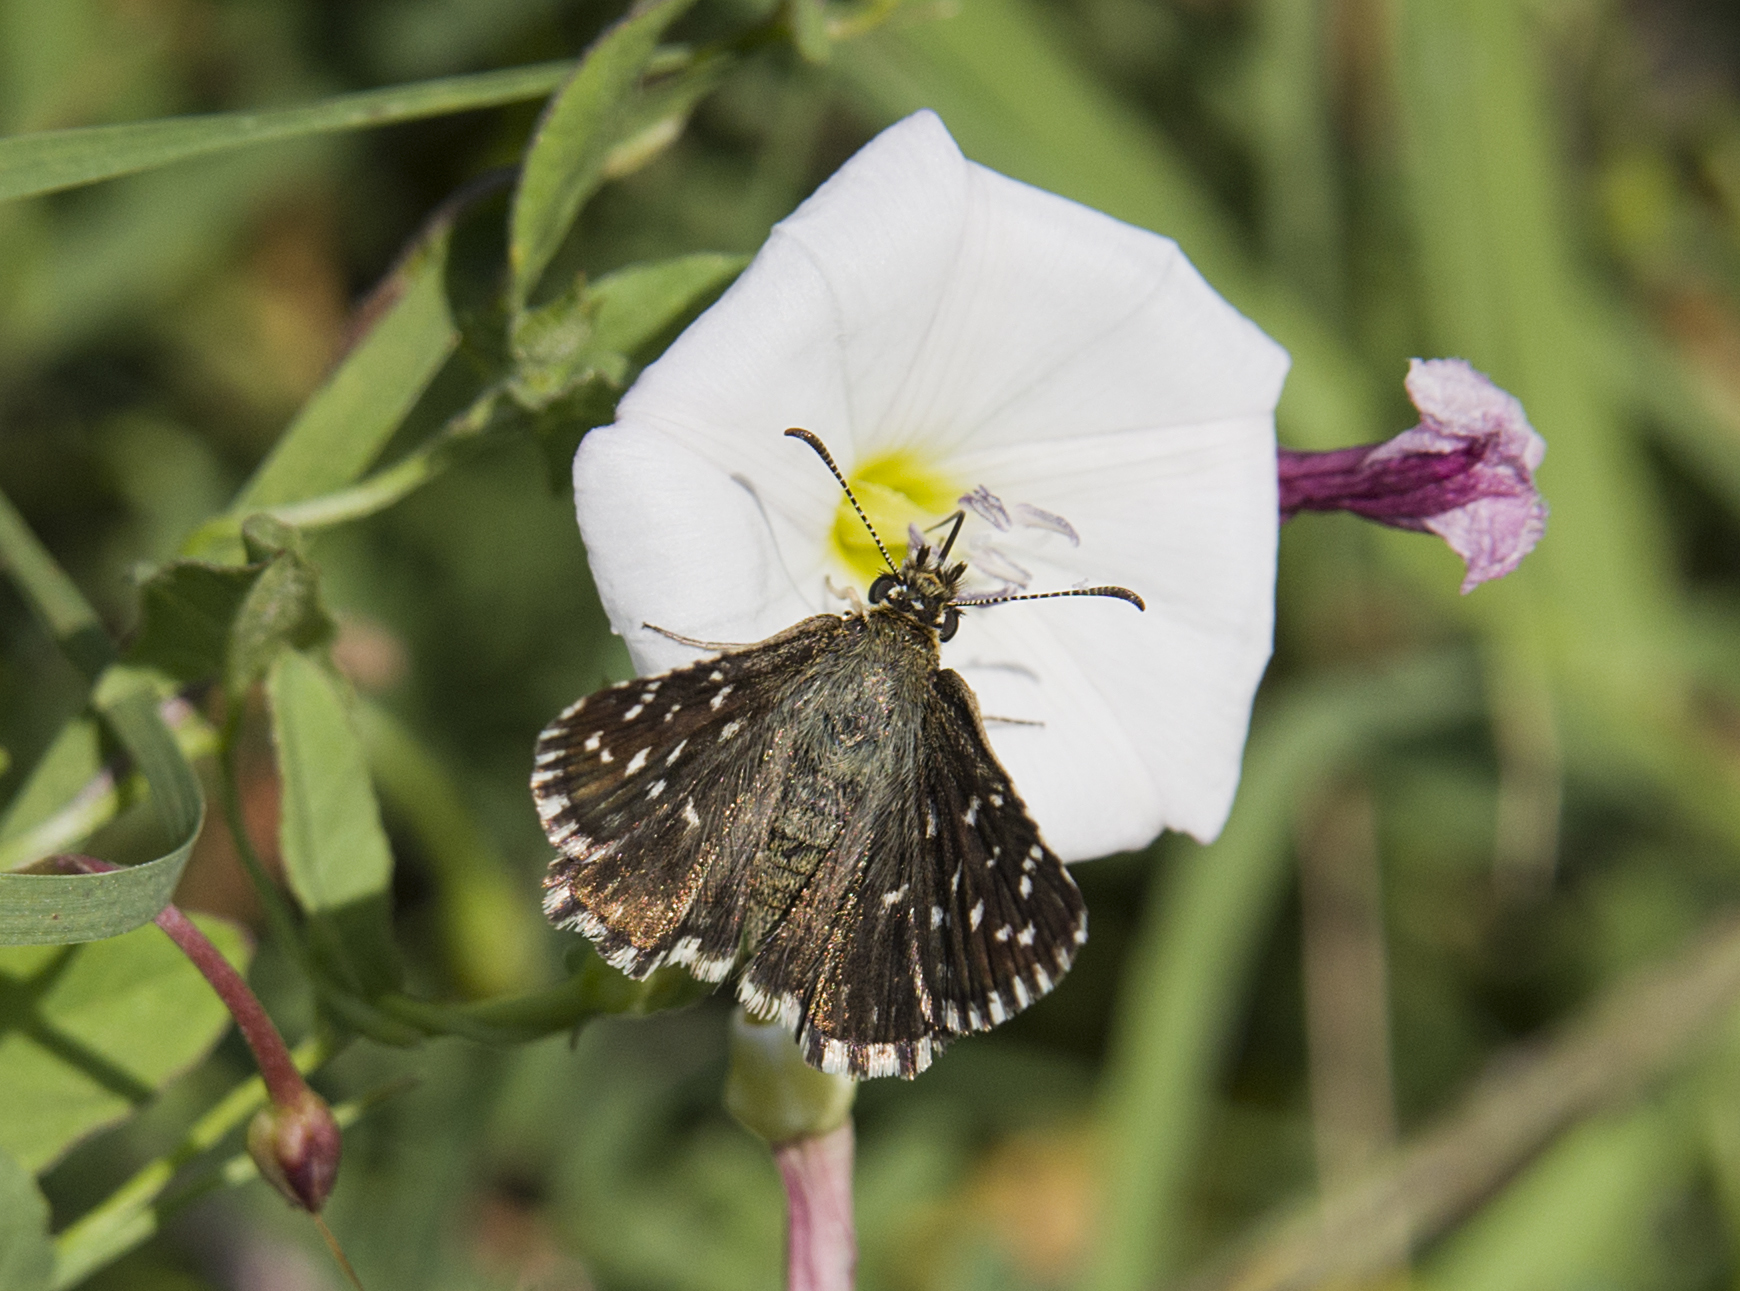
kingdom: Animalia
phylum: Arthropoda
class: Insecta
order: Lepidoptera
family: Hesperiidae
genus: Pyrgus
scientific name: Pyrgus malvae
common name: Grizzled skipper
